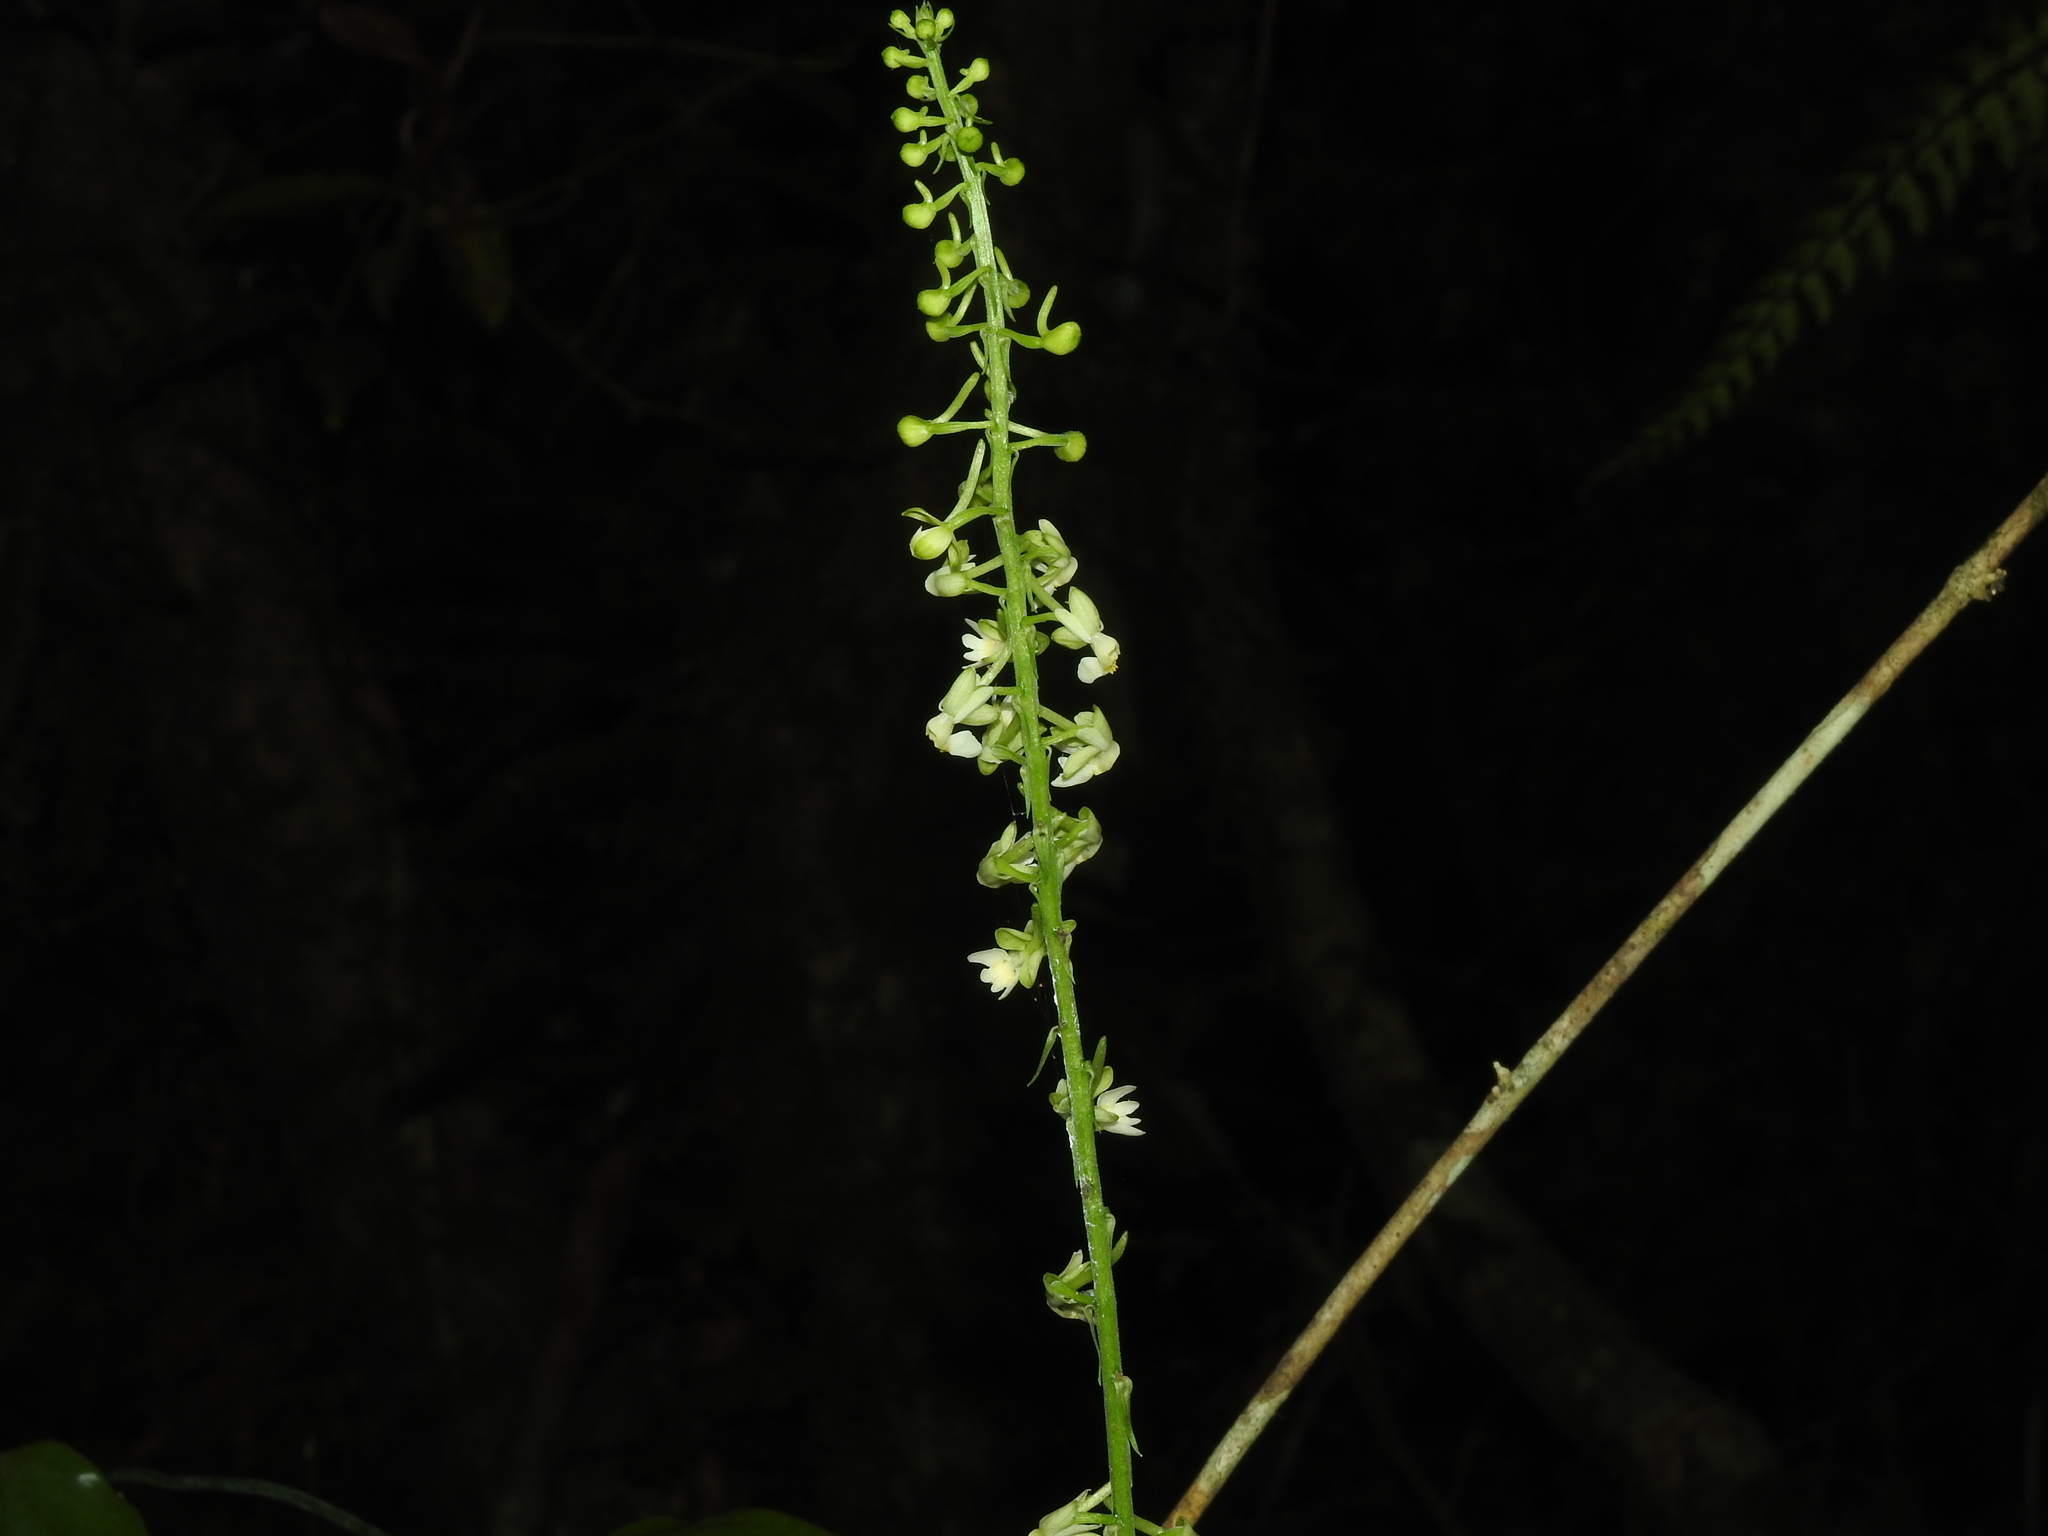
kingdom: Plantae
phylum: Tracheophyta
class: Liliopsida
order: Asparagales
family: Orchidaceae
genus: Calanthe
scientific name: Calanthe davidii
